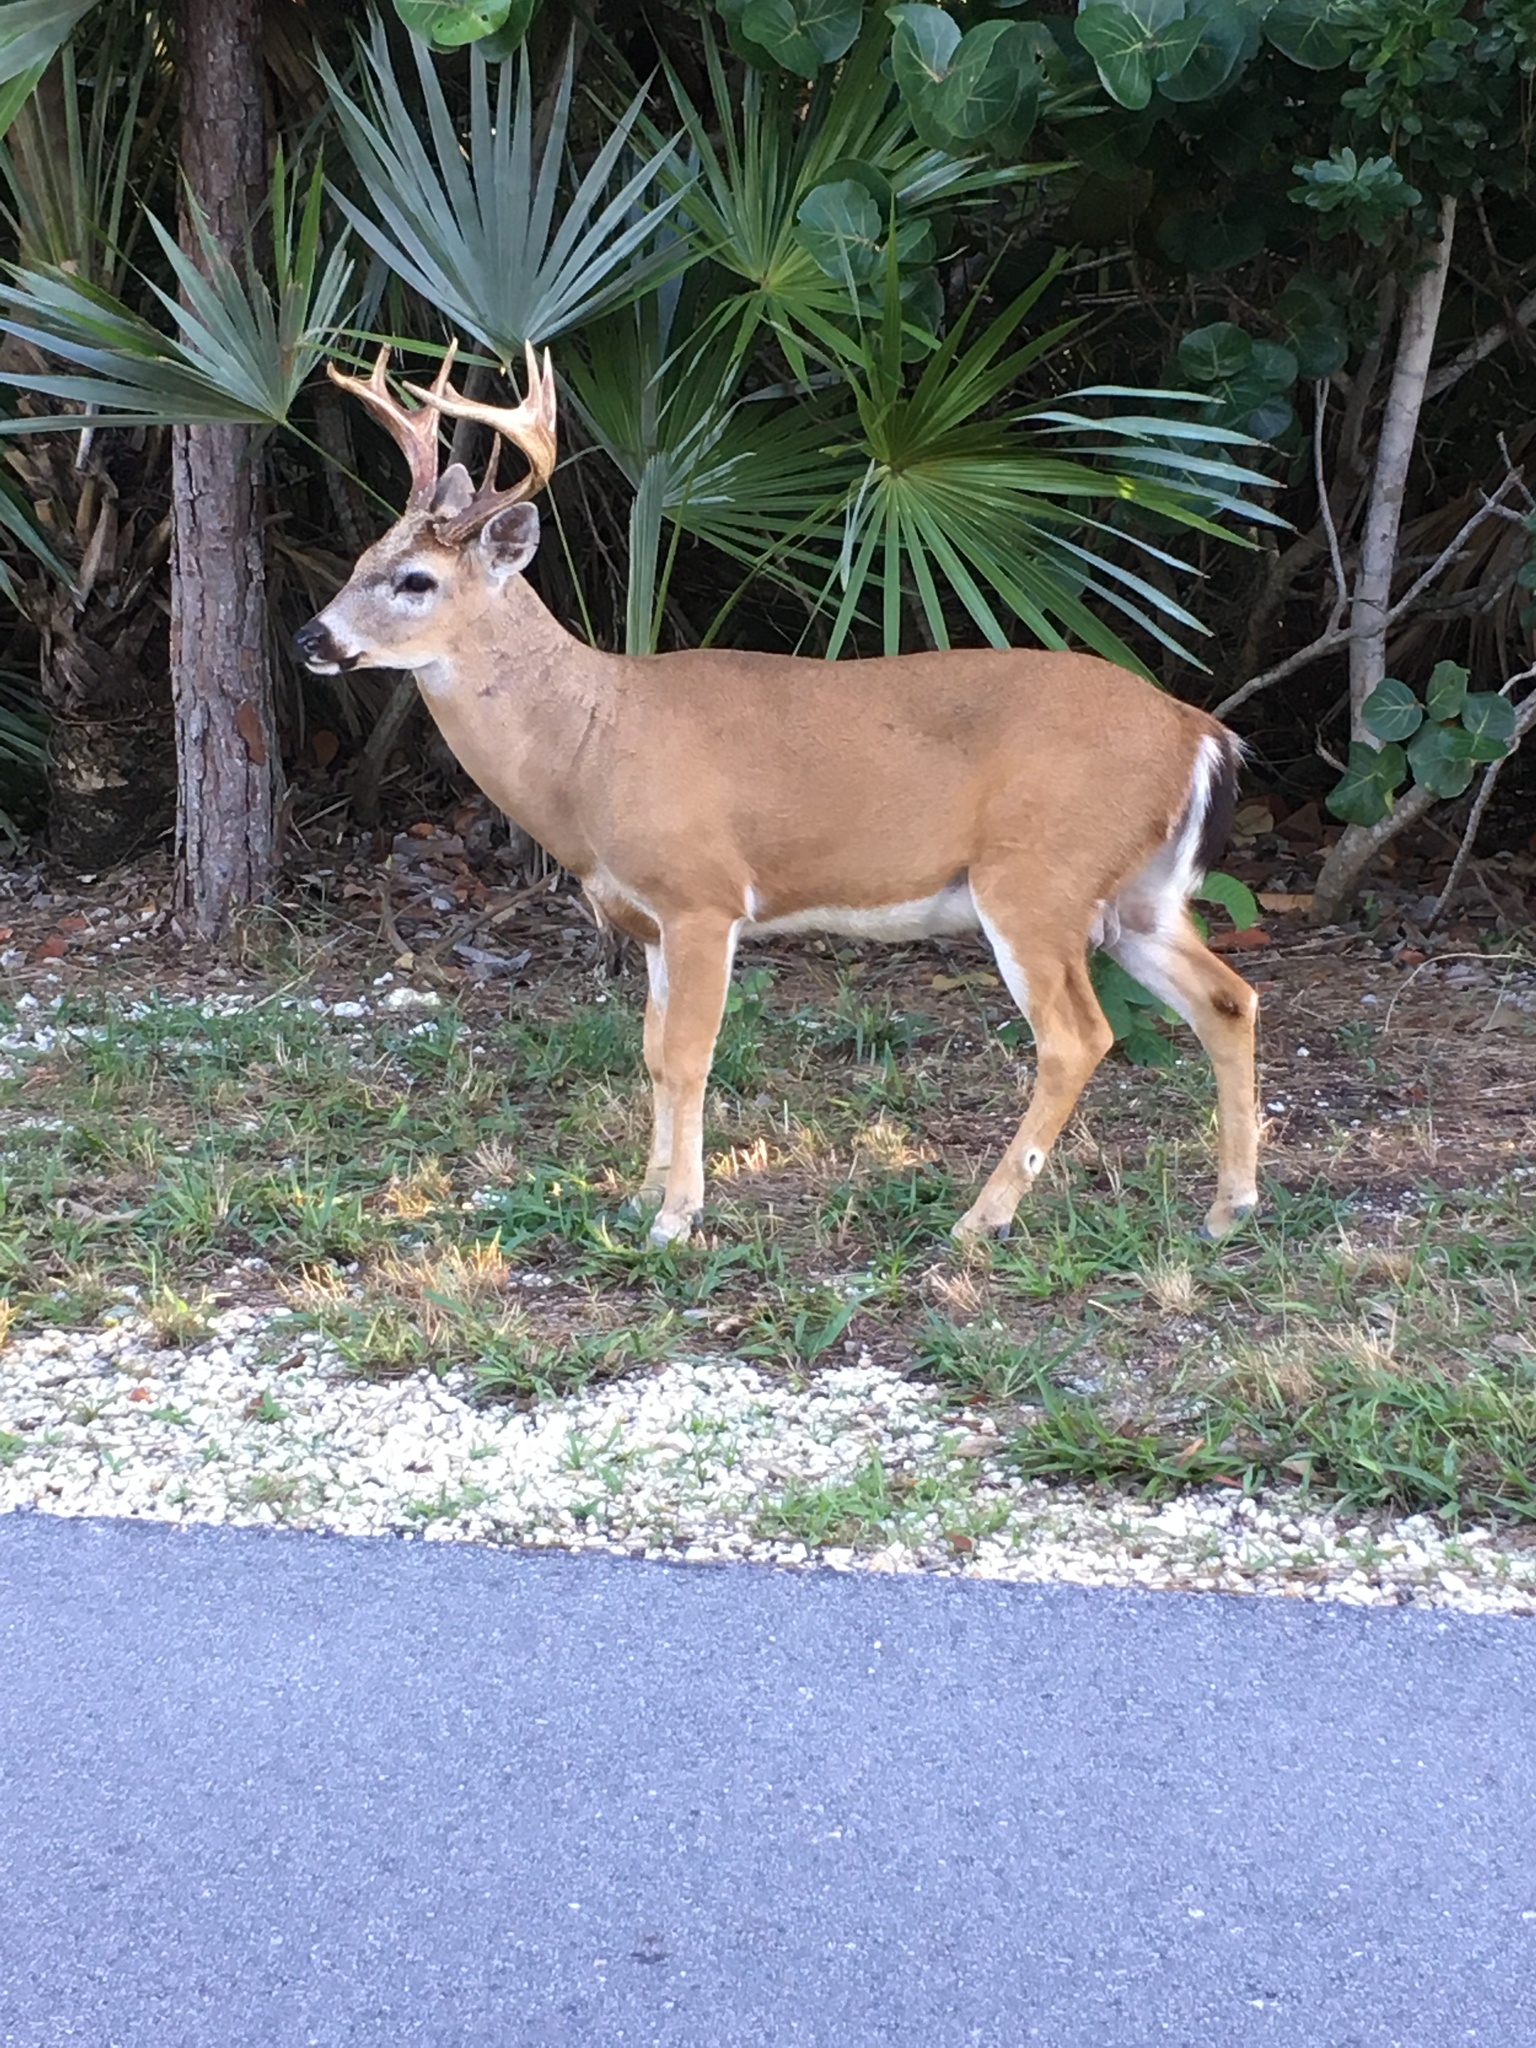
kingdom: Animalia
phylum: Chordata
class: Mammalia
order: Artiodactyla
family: Cervidae
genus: Odocoileus
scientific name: Odocoileus virginianus
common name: White-tailed deer
